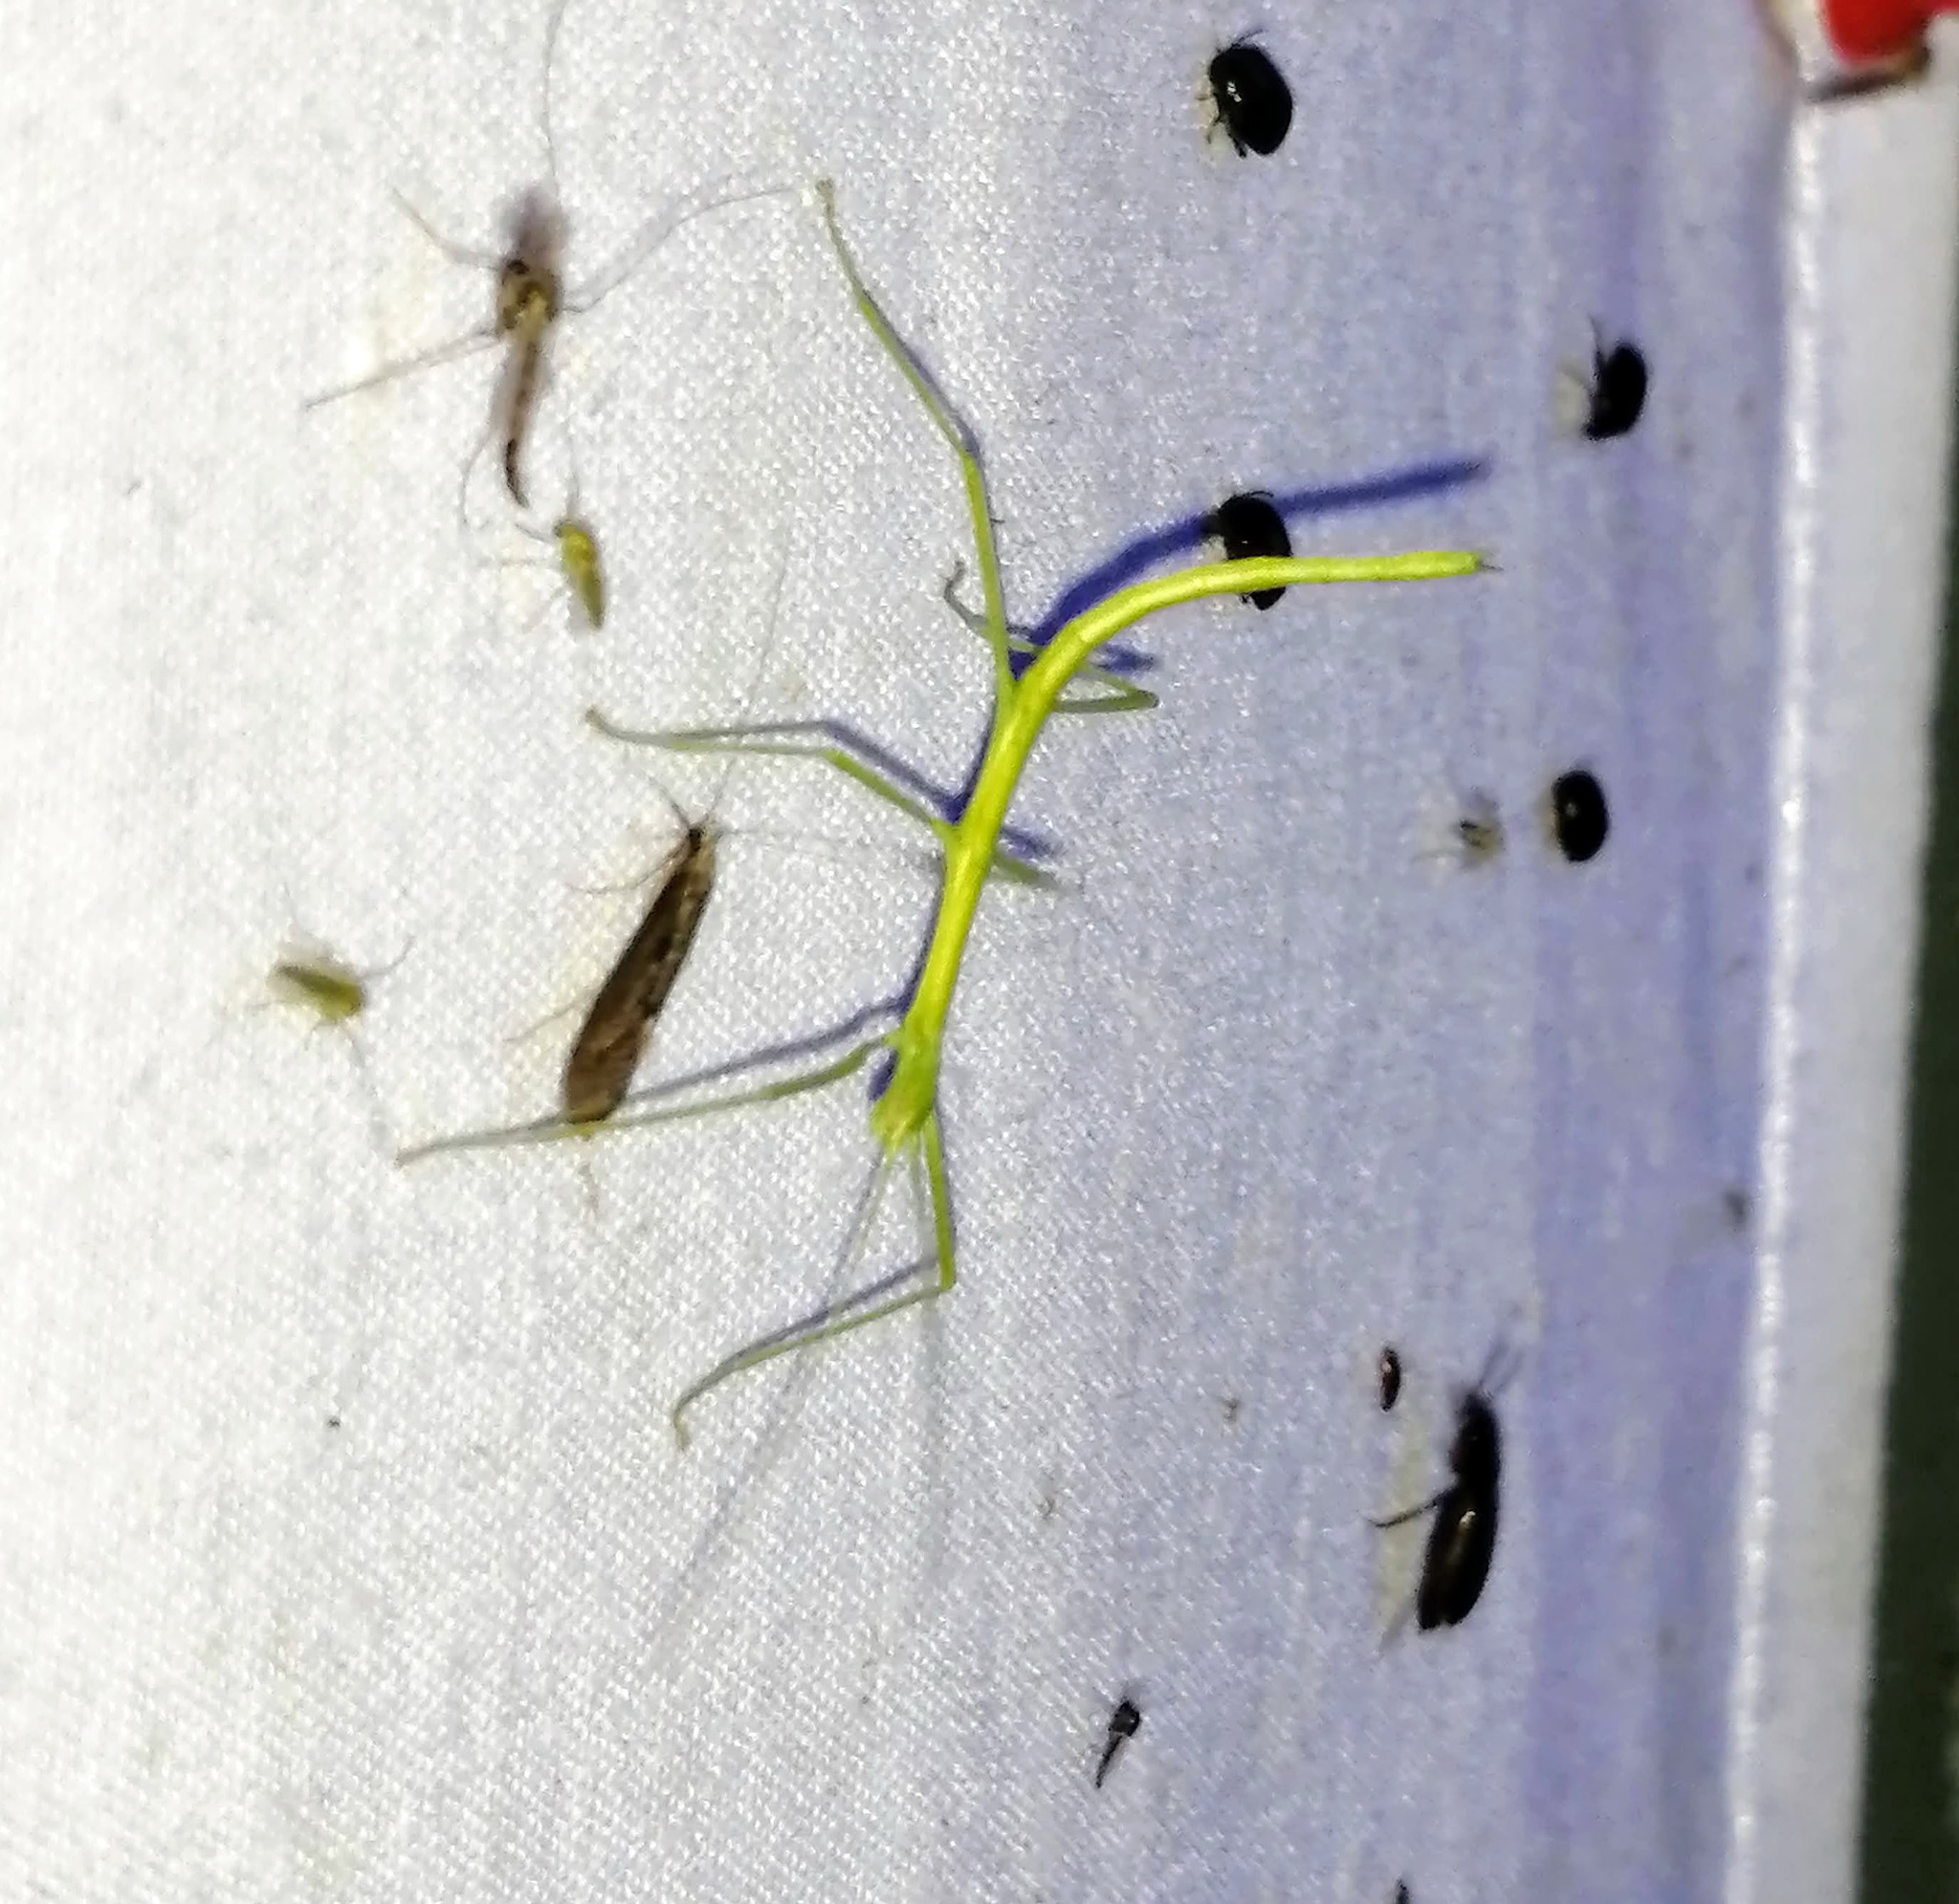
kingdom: Animalia
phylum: Arthropoda
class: Insecta
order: Phasmida
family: Diapheromeridae
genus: Diapheromera
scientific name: Diapheromera femorata
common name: Common american walkingstick
